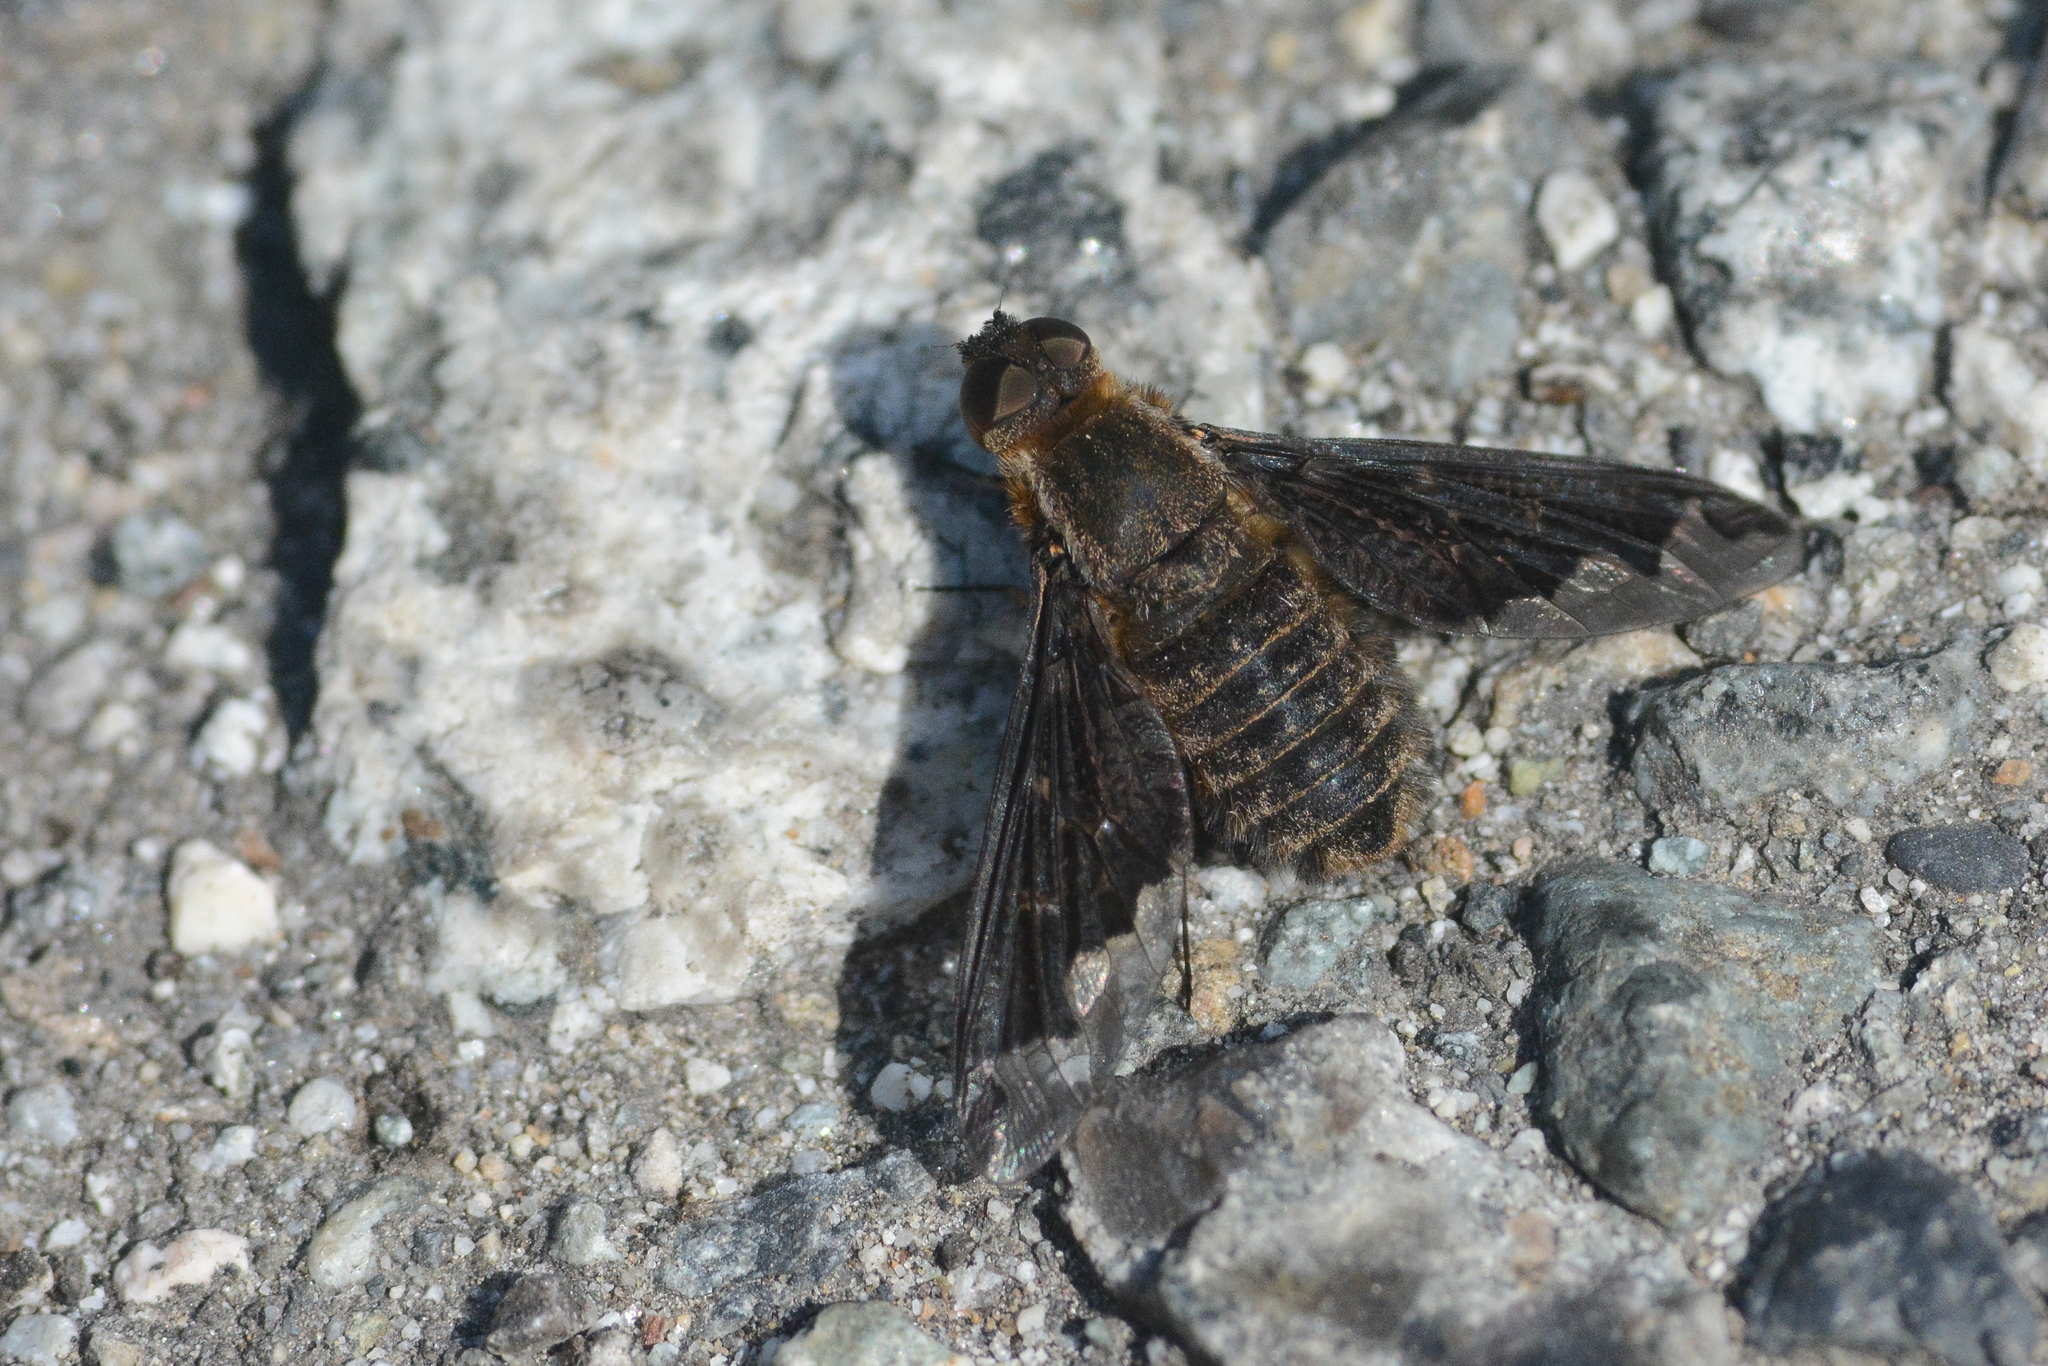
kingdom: Animalia
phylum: Arthropoda
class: Insecta
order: Diptera
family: Bombyliidae
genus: Hemipenthes
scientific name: Hemipenthes jaennickeana
